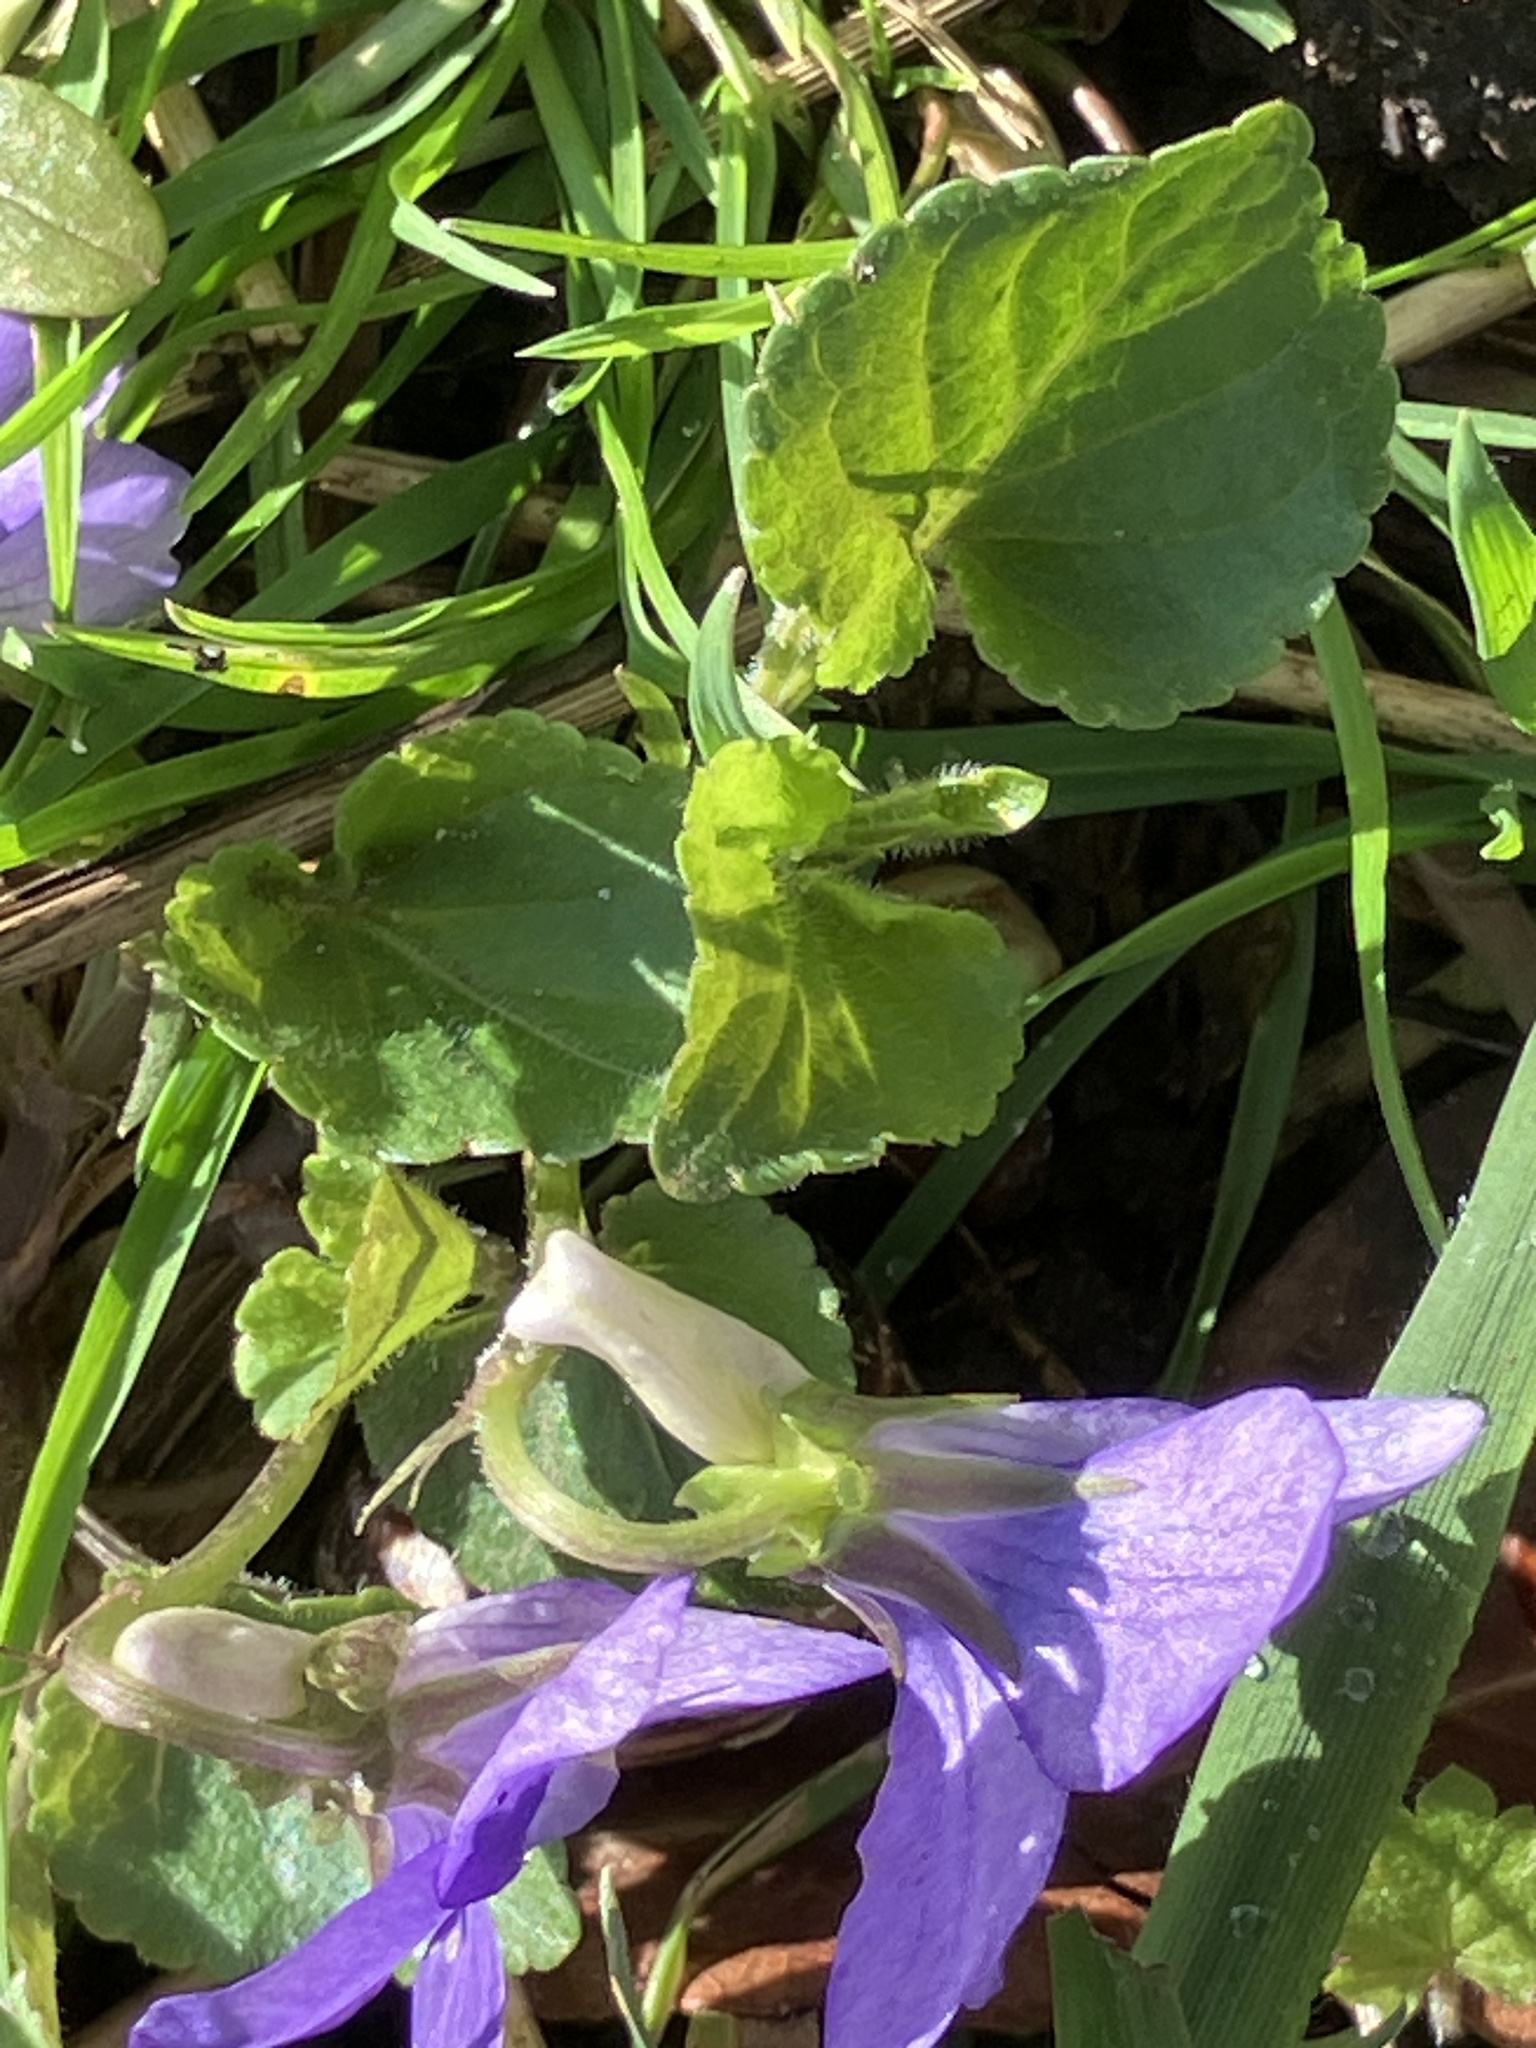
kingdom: Plantae
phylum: Tracheophyta
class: Magnoliopsida
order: Malpighiales
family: Violaceae
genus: Viola
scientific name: Viola riviniana
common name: Common dog-violet
